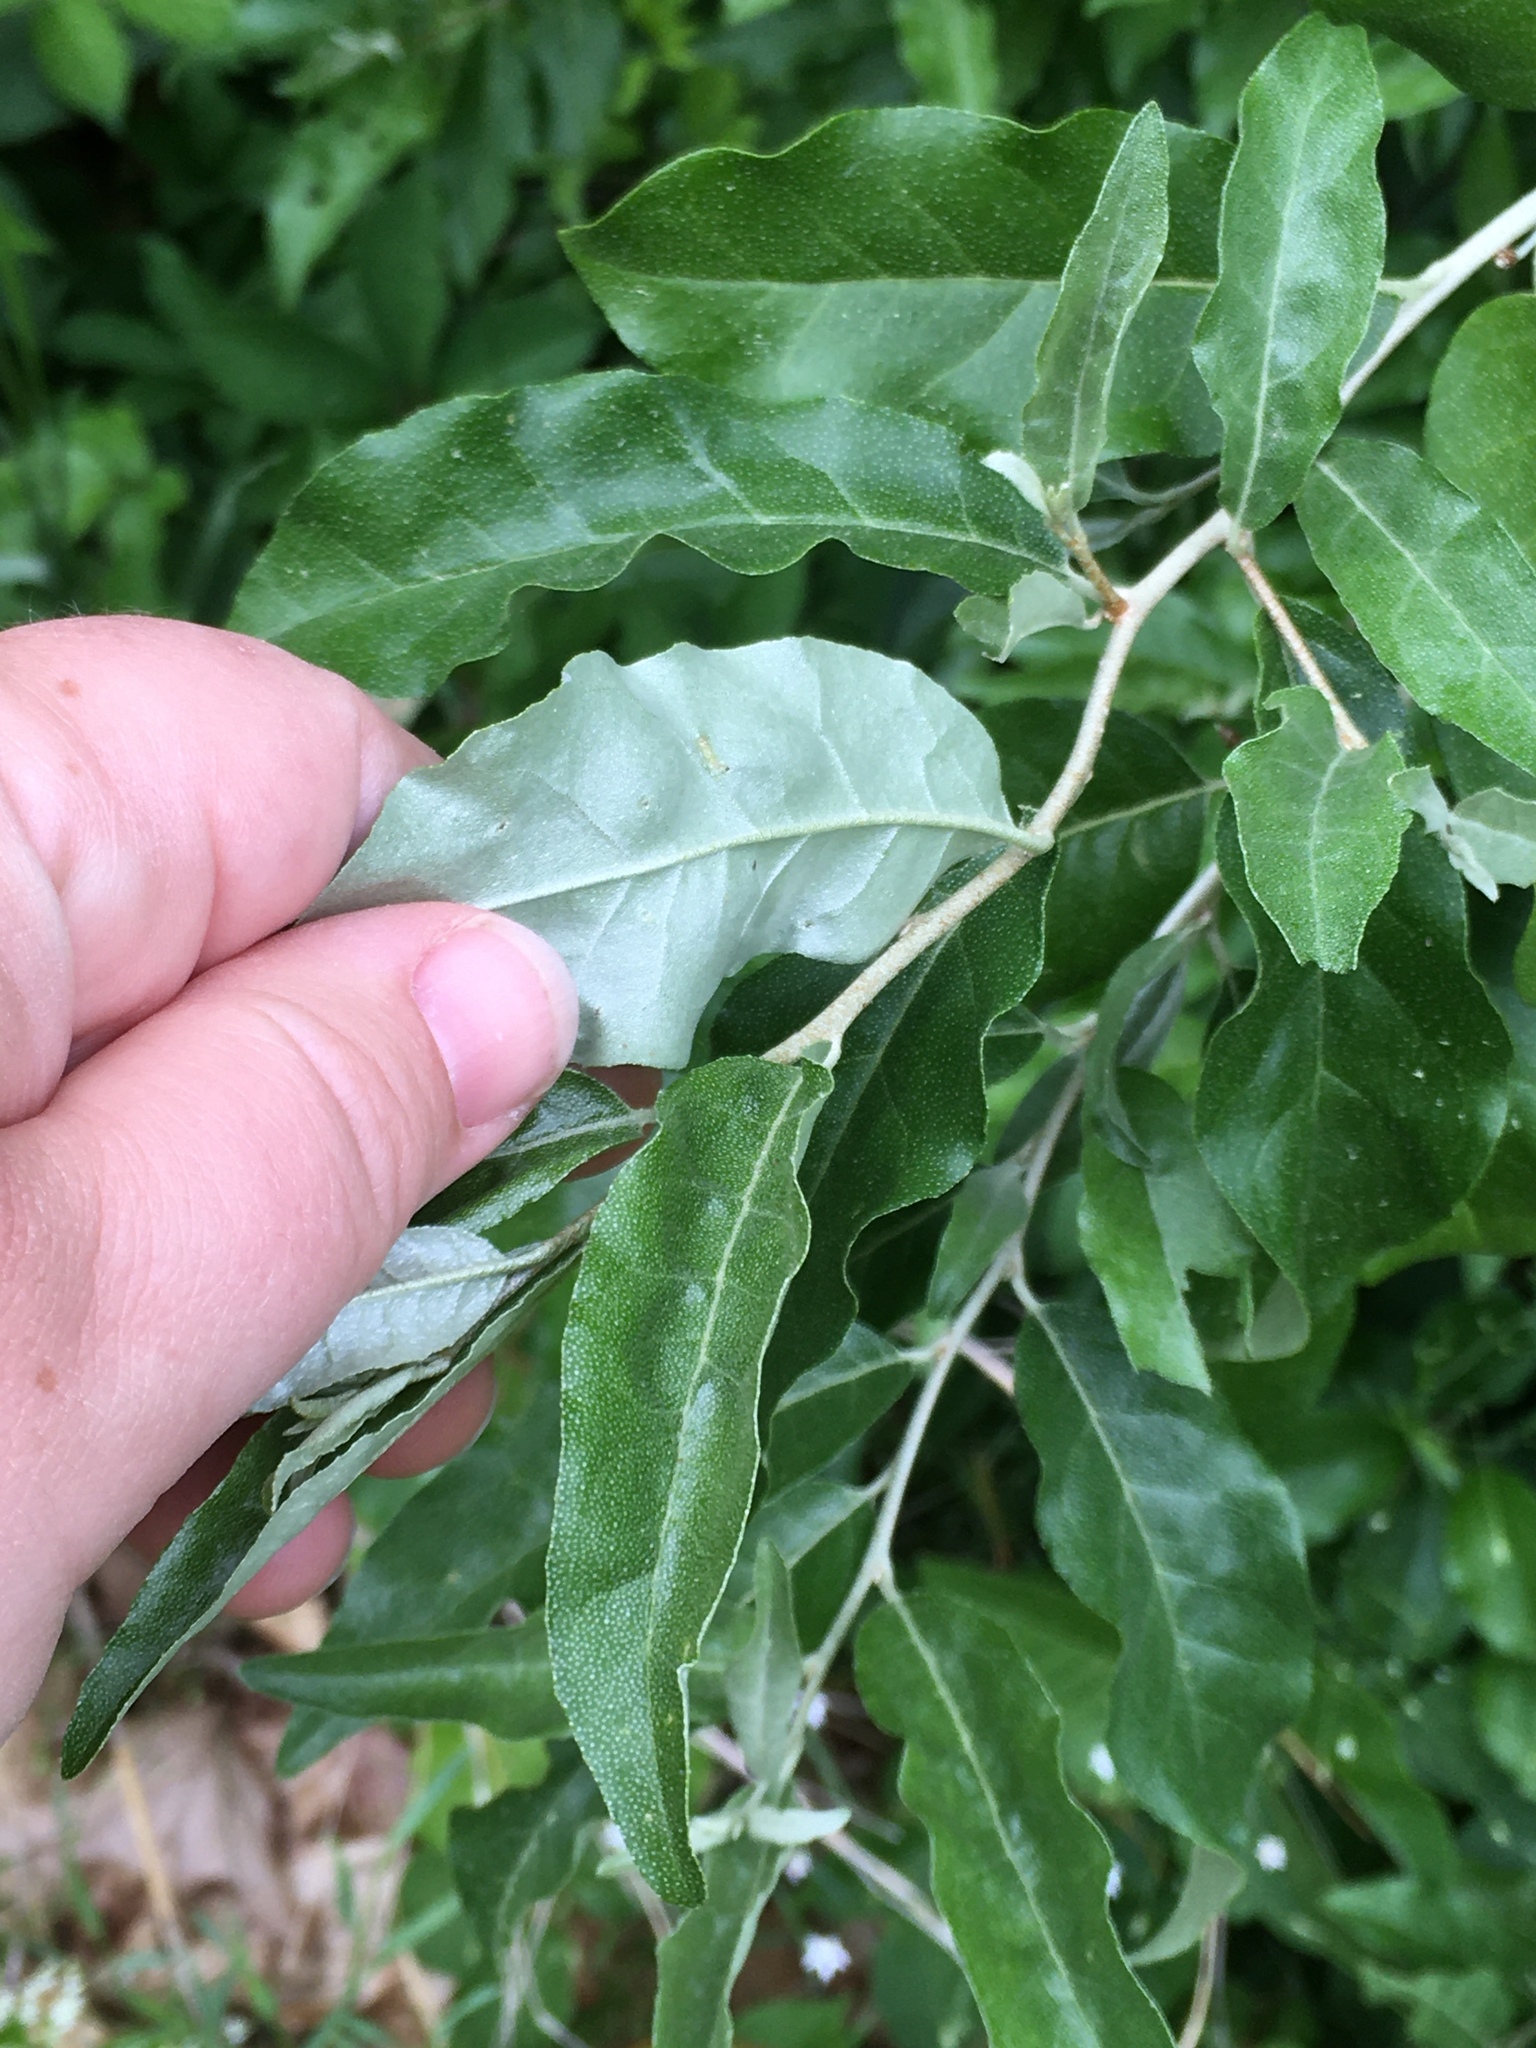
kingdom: Plantae
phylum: Tracheophyta
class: Magnoliopsida
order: Rosales
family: Elaeagnaceae
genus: Elaeagnus
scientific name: Elaeagnus umbellata
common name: Autumn olive
